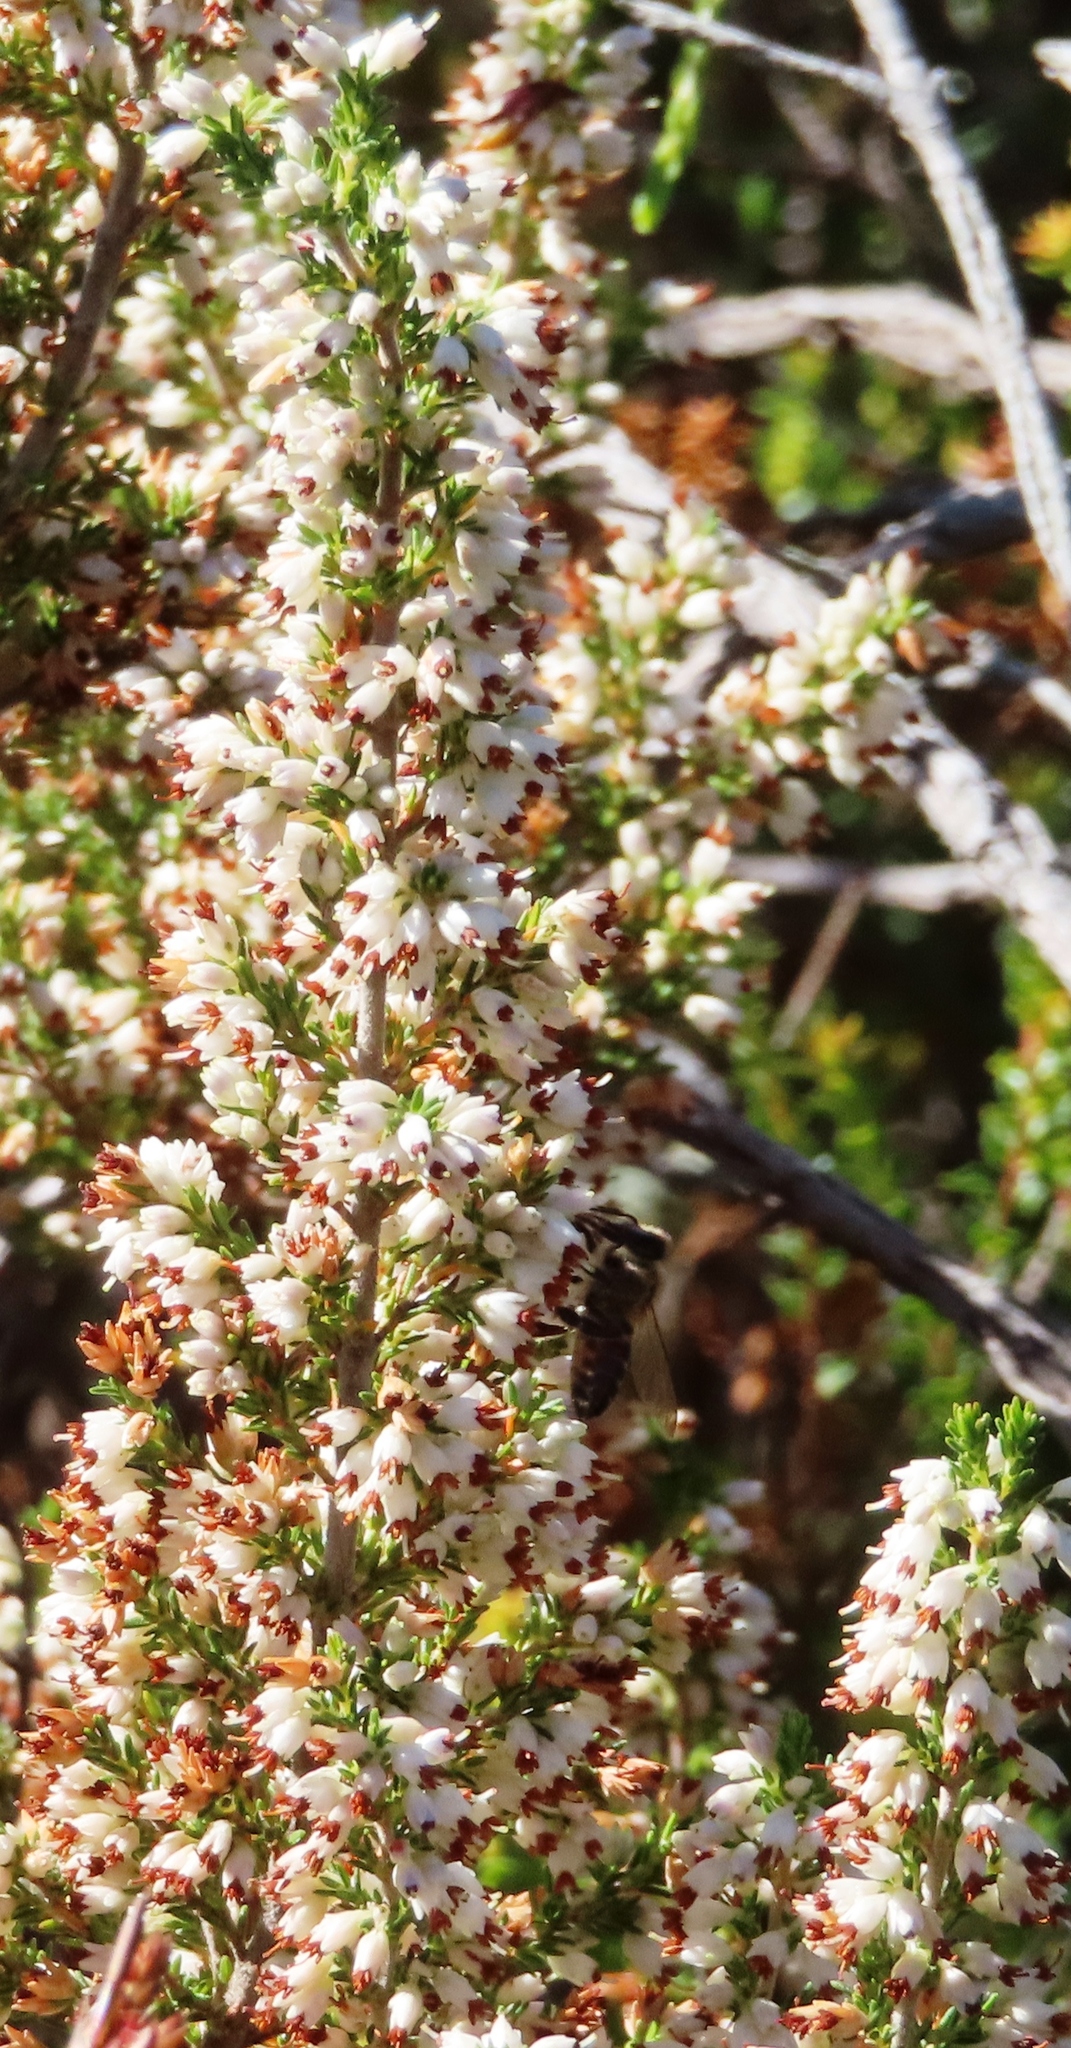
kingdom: Plantae
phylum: Tracheophyta
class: Magnoliopsida
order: Ericales
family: Ericaceae
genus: Erica
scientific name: Erica imbricata
